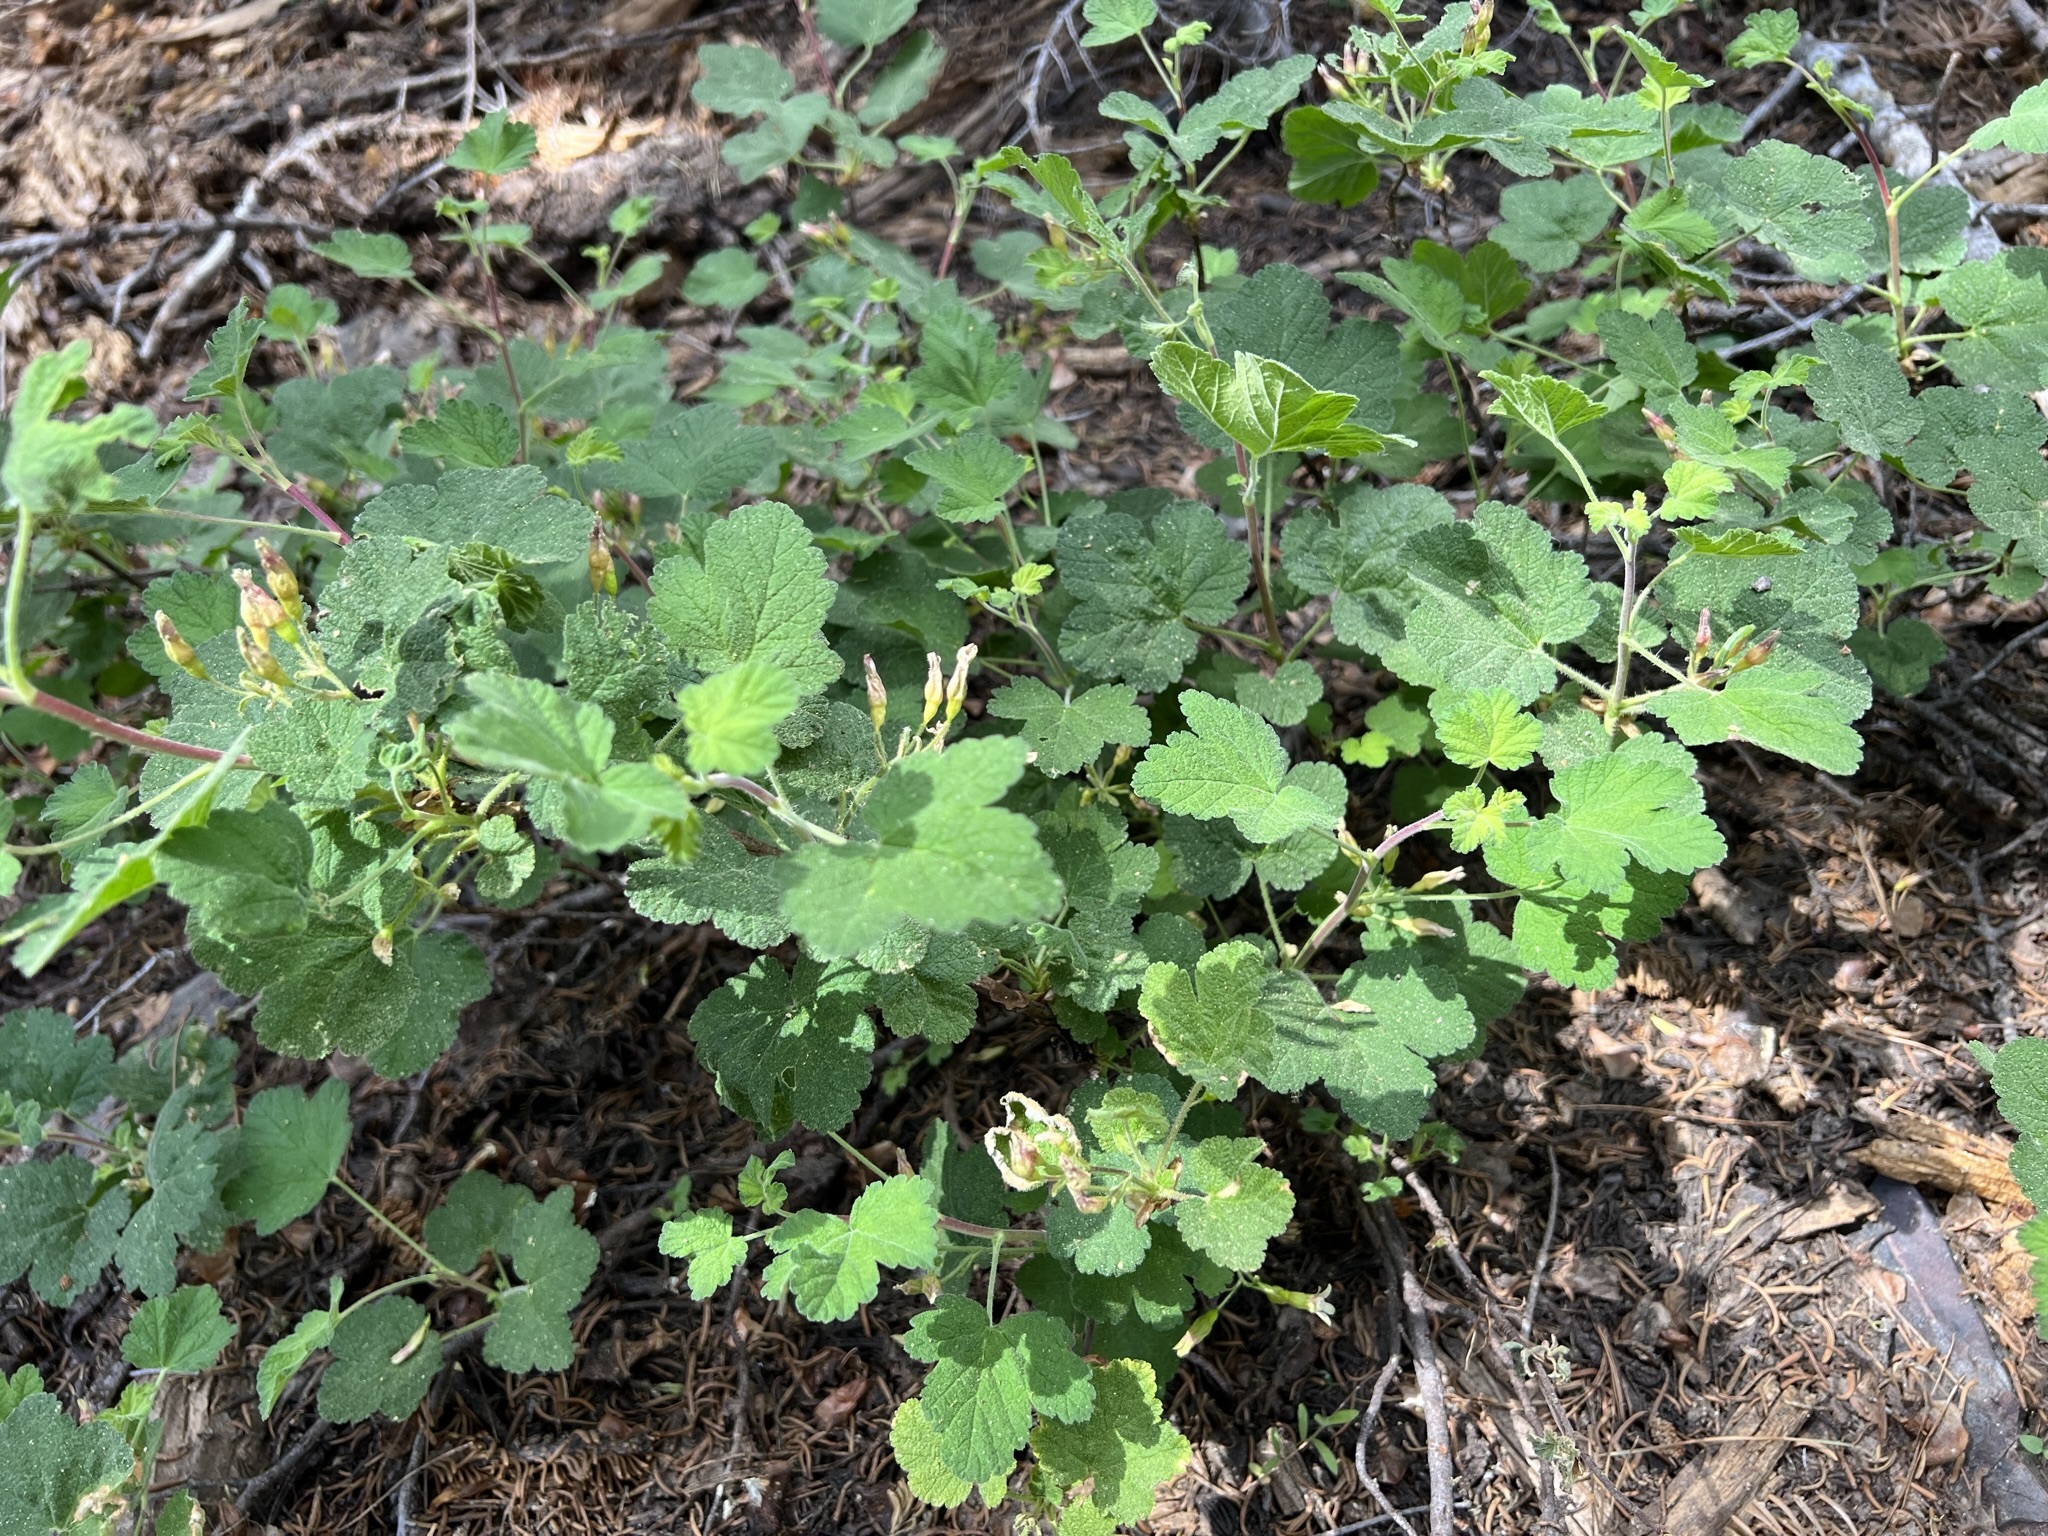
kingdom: Plantae
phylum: Tracheophyta
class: Magnoliopsida
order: Saxifragales
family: Grossulariaceae
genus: Ribes
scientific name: Ribes viscosissimum
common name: Sticky currant
